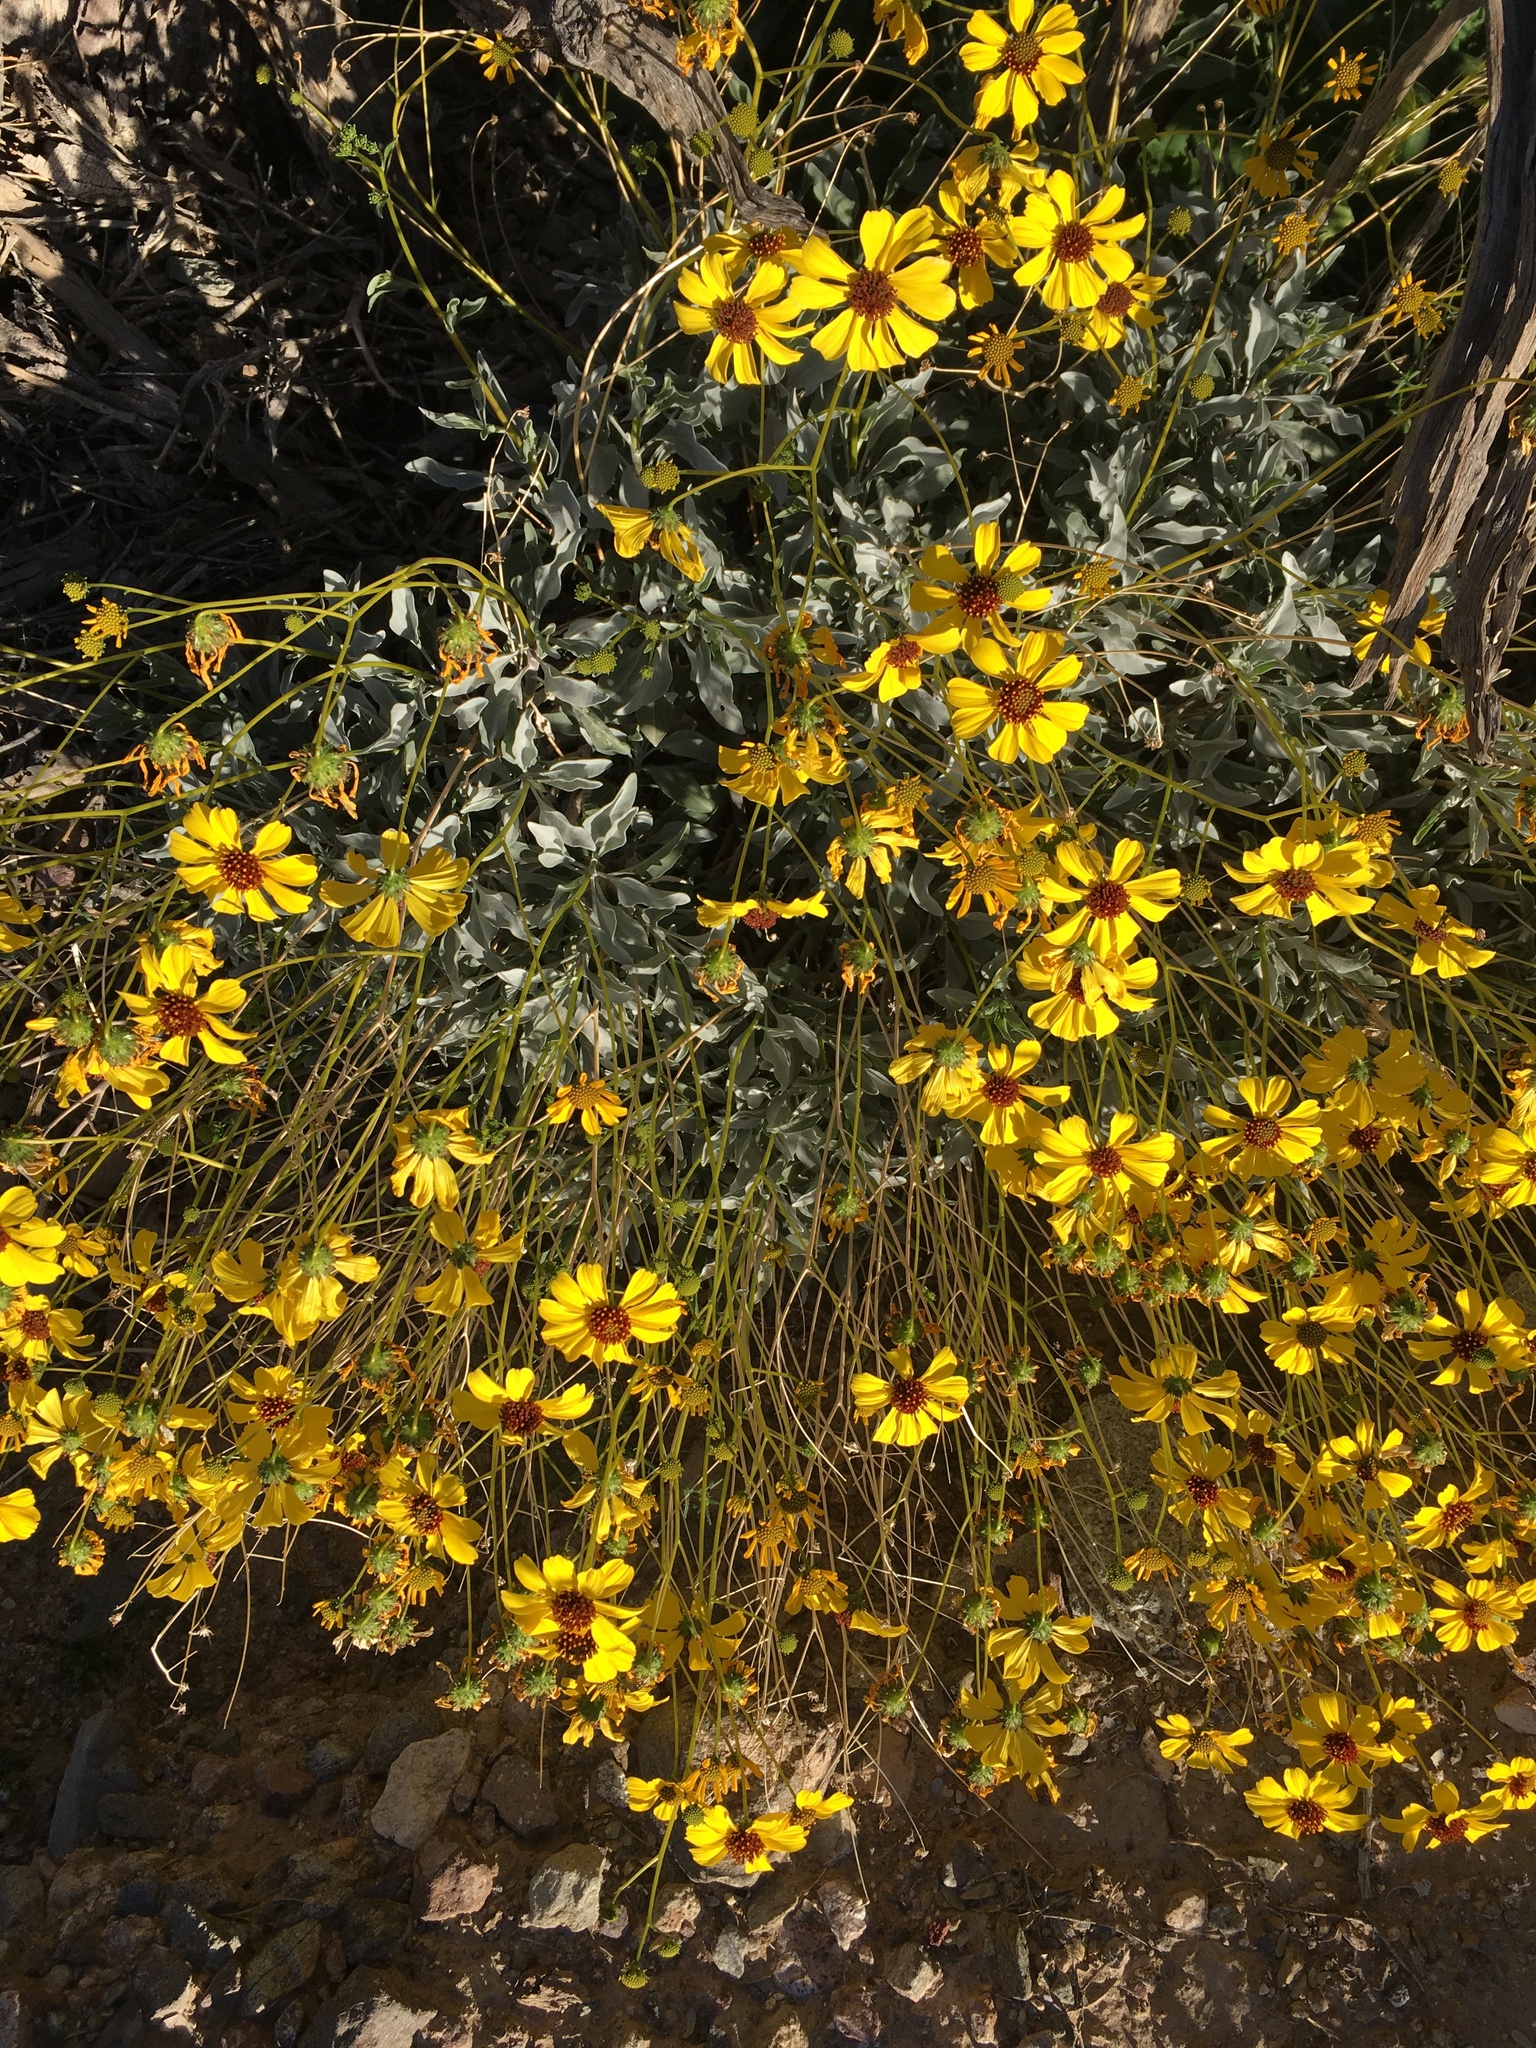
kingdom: Plantae
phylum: Tracheophyta
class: Magnoliopsida
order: Asterales
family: Asteraceae
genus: Encelia
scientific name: Encelia farinosa
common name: Brittlebush
